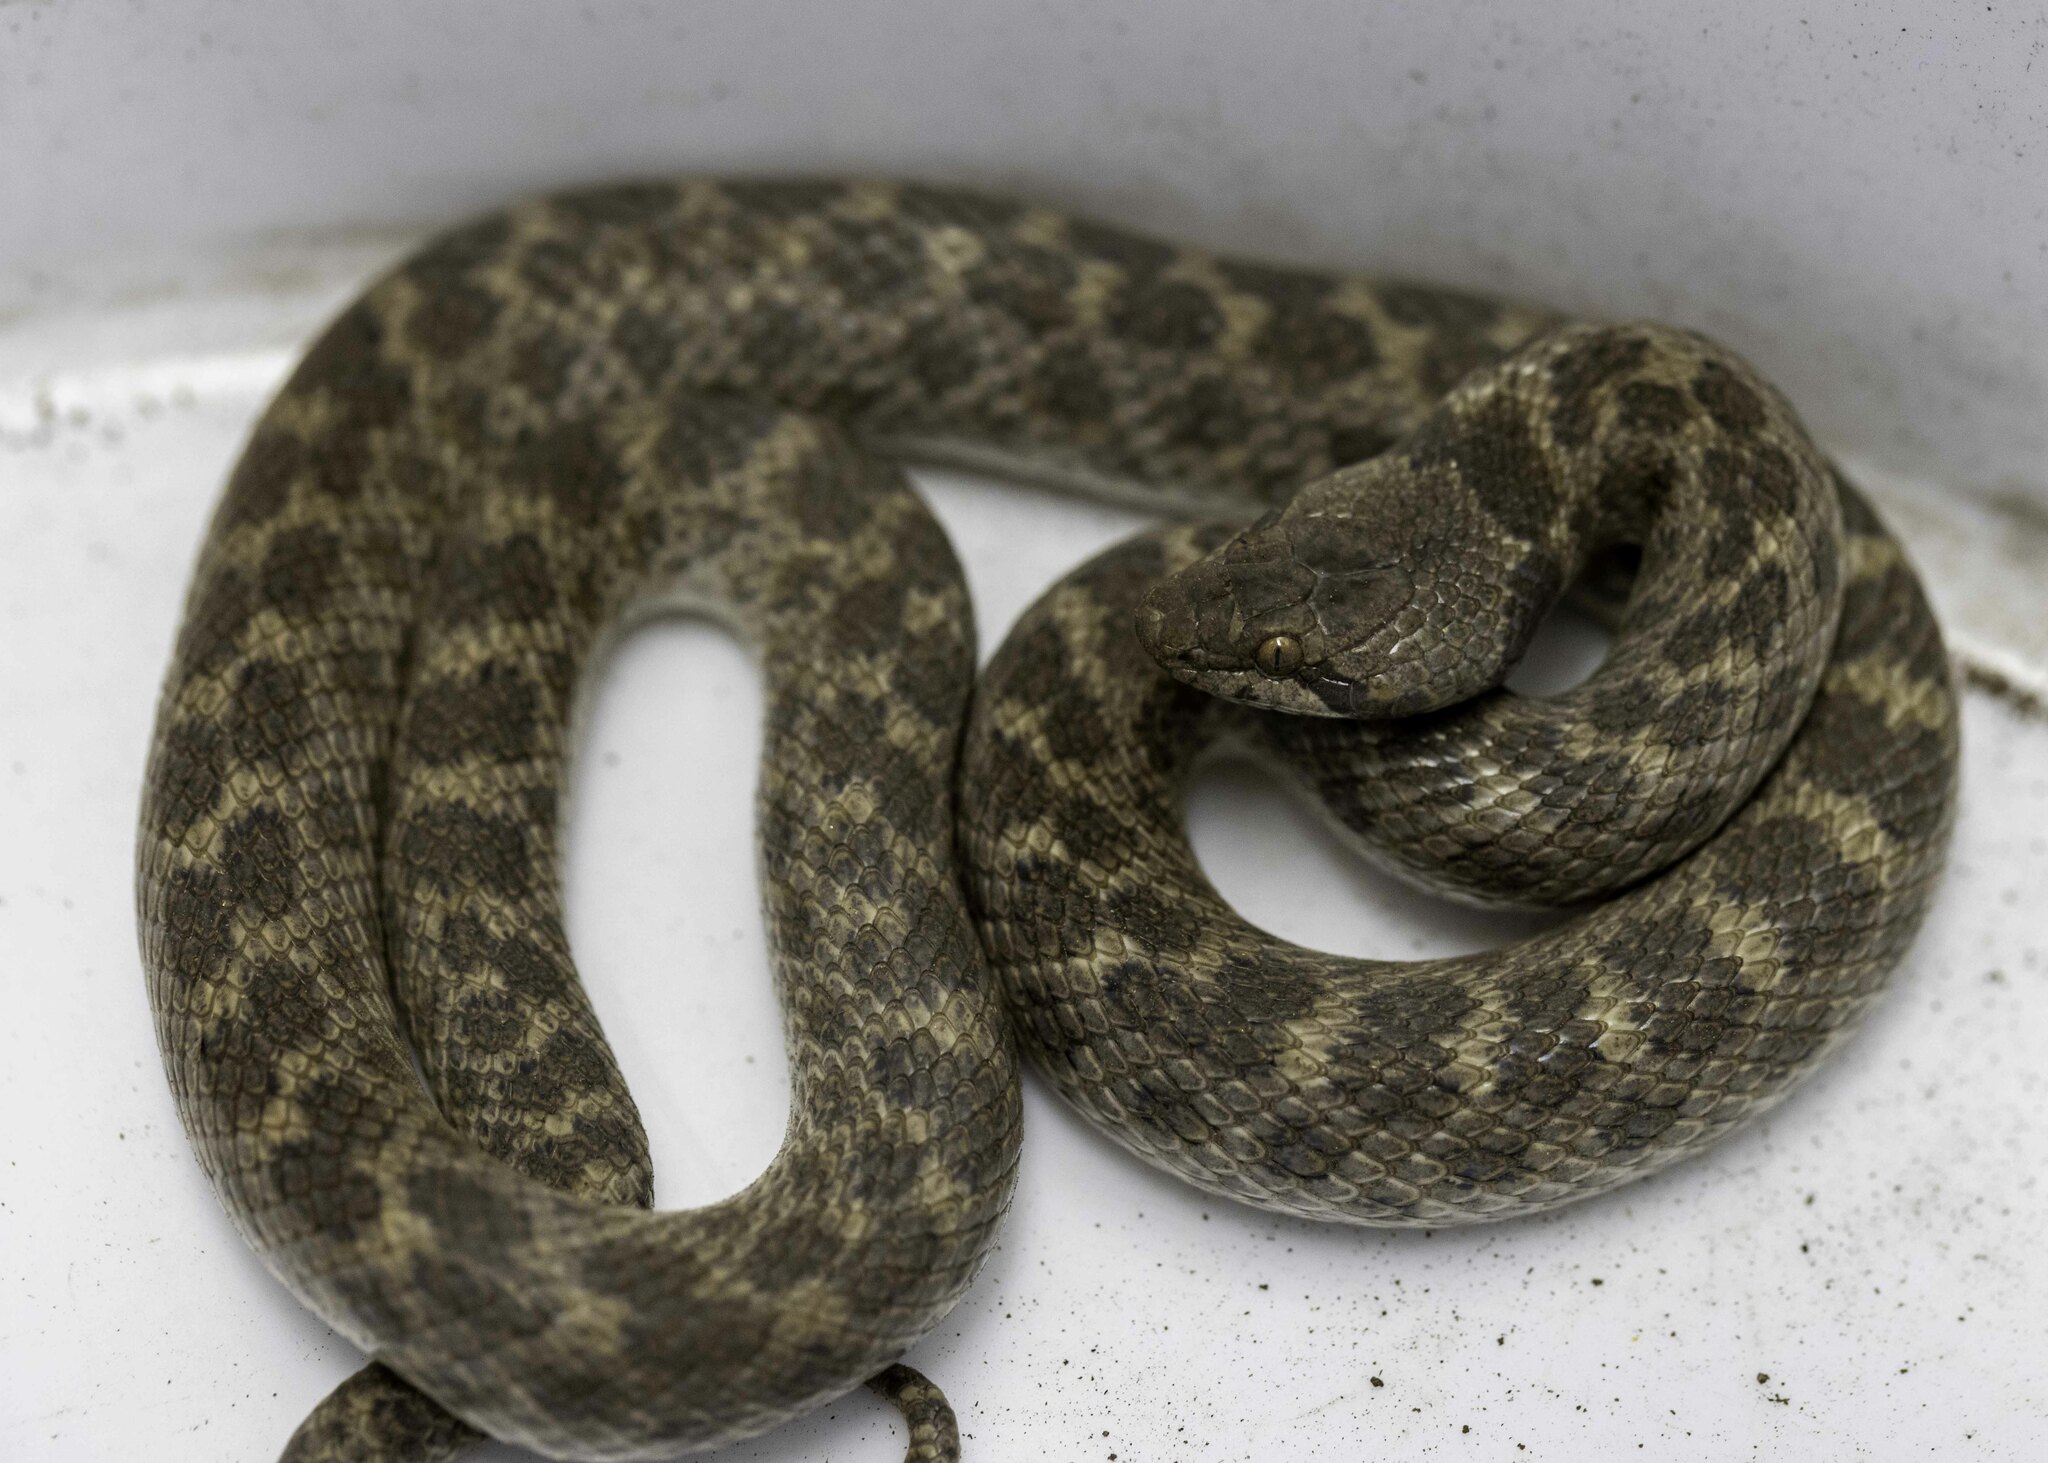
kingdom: Animalia
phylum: Chordata
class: Squamata
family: Colubridae
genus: Hypsiglena
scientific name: Hypsiglena ochrorhynchus
